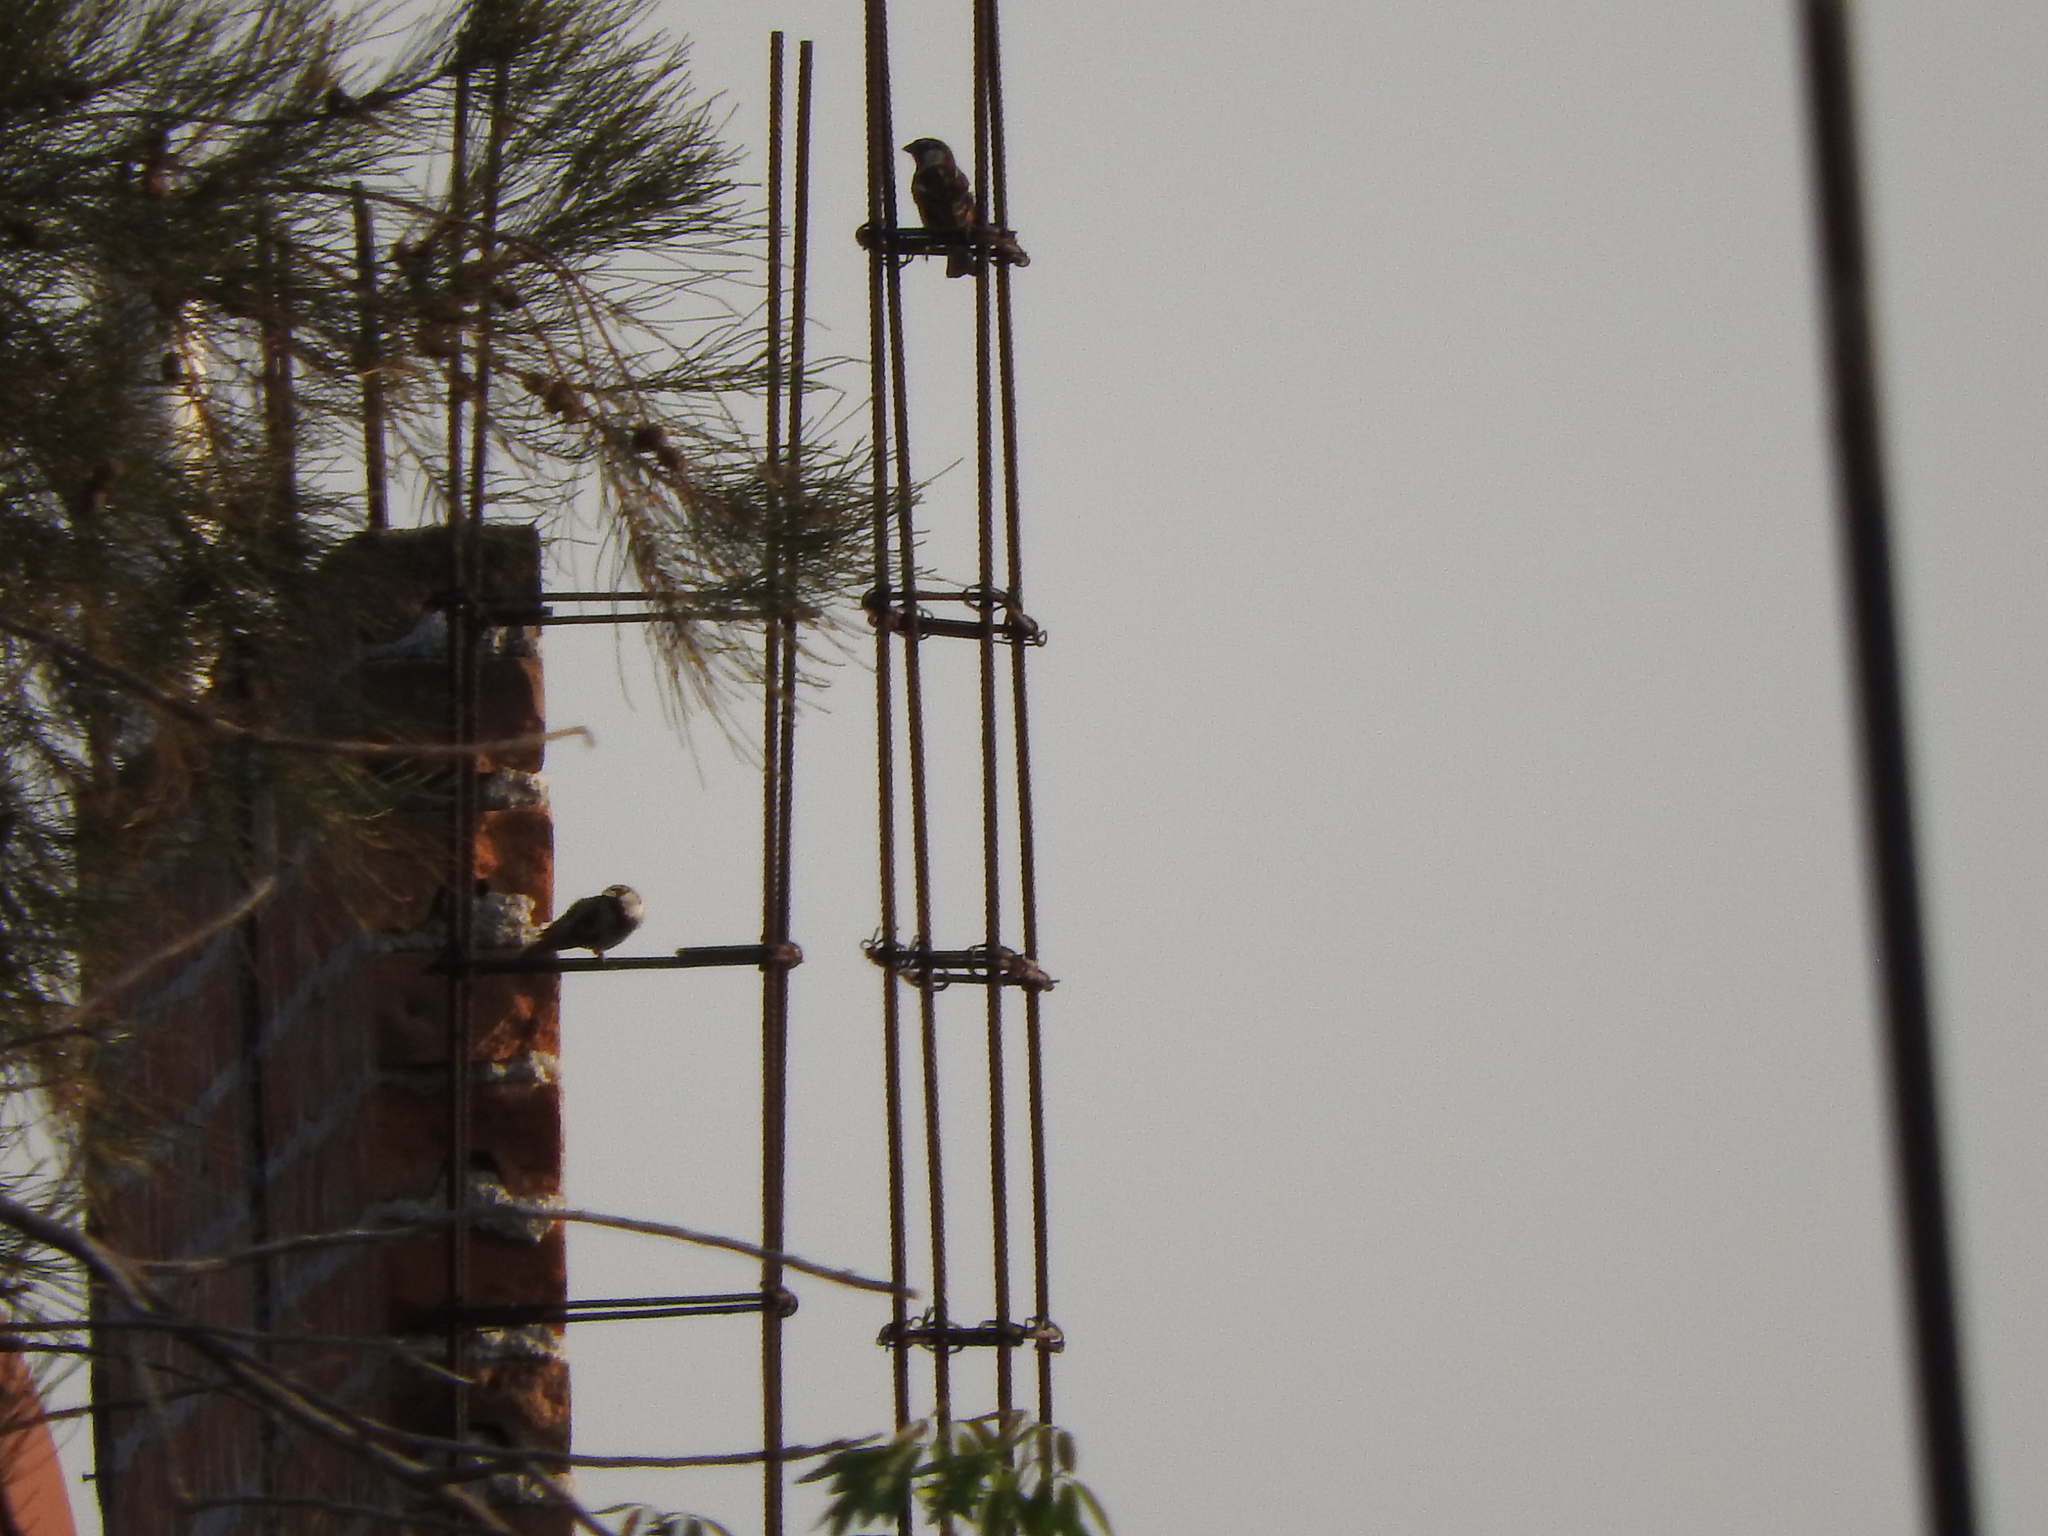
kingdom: Animalia
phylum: Chordata
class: Aves
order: Passeriformes
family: Passeridae
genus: Passer
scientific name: Passer domesticus
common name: House sparrow
